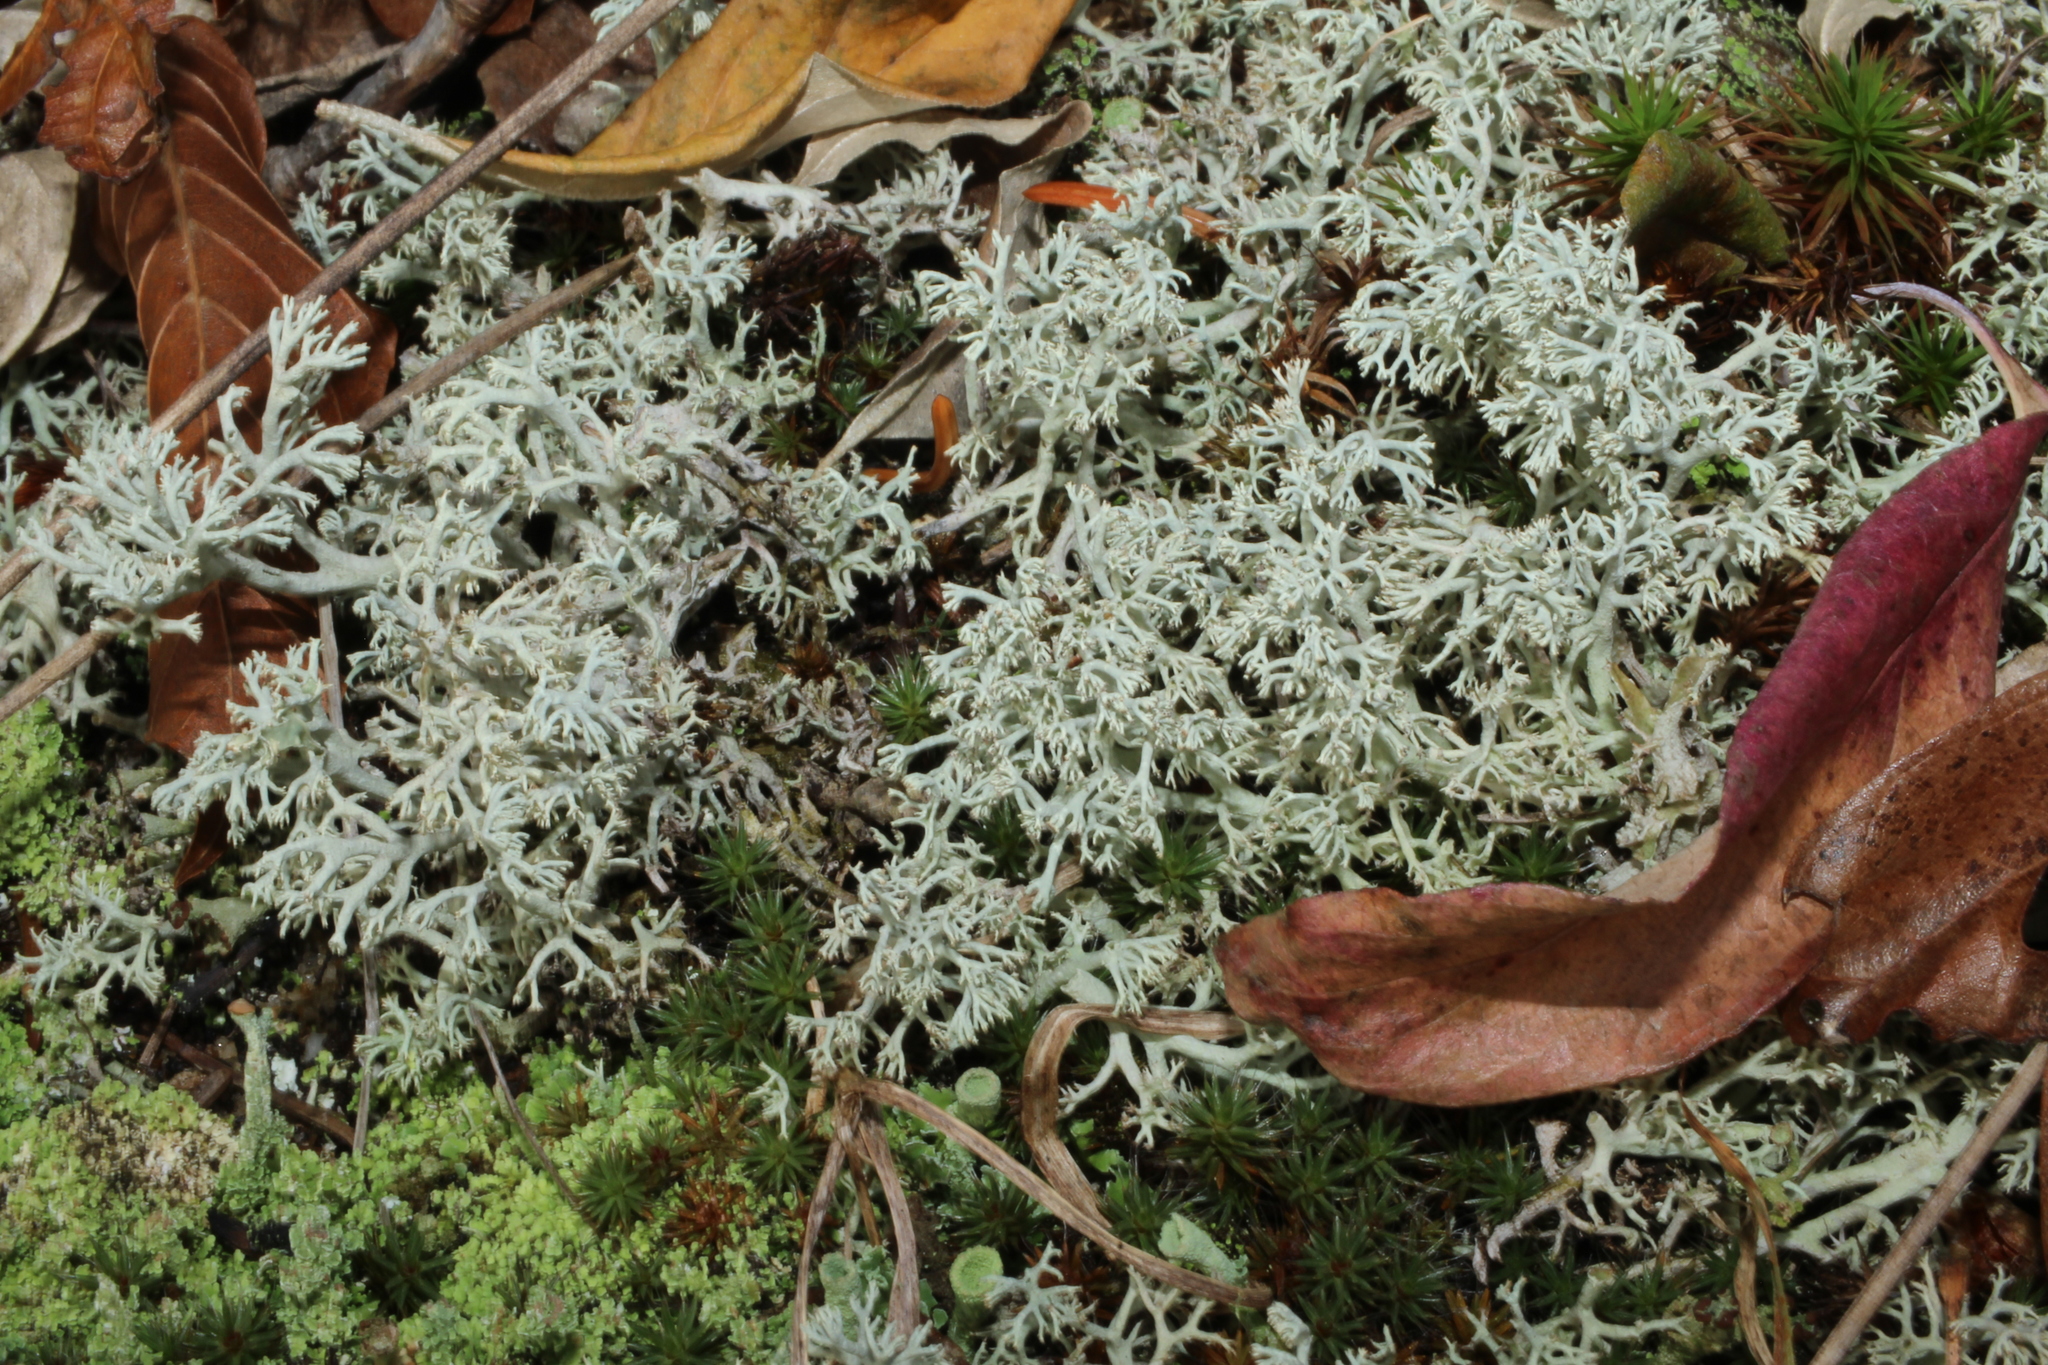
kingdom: Fungi
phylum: Ascomycota
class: Lecanoromycetes
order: Lecanorales
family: Cladoniaceae
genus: Cladonia
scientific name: Cladonia rangiferina
